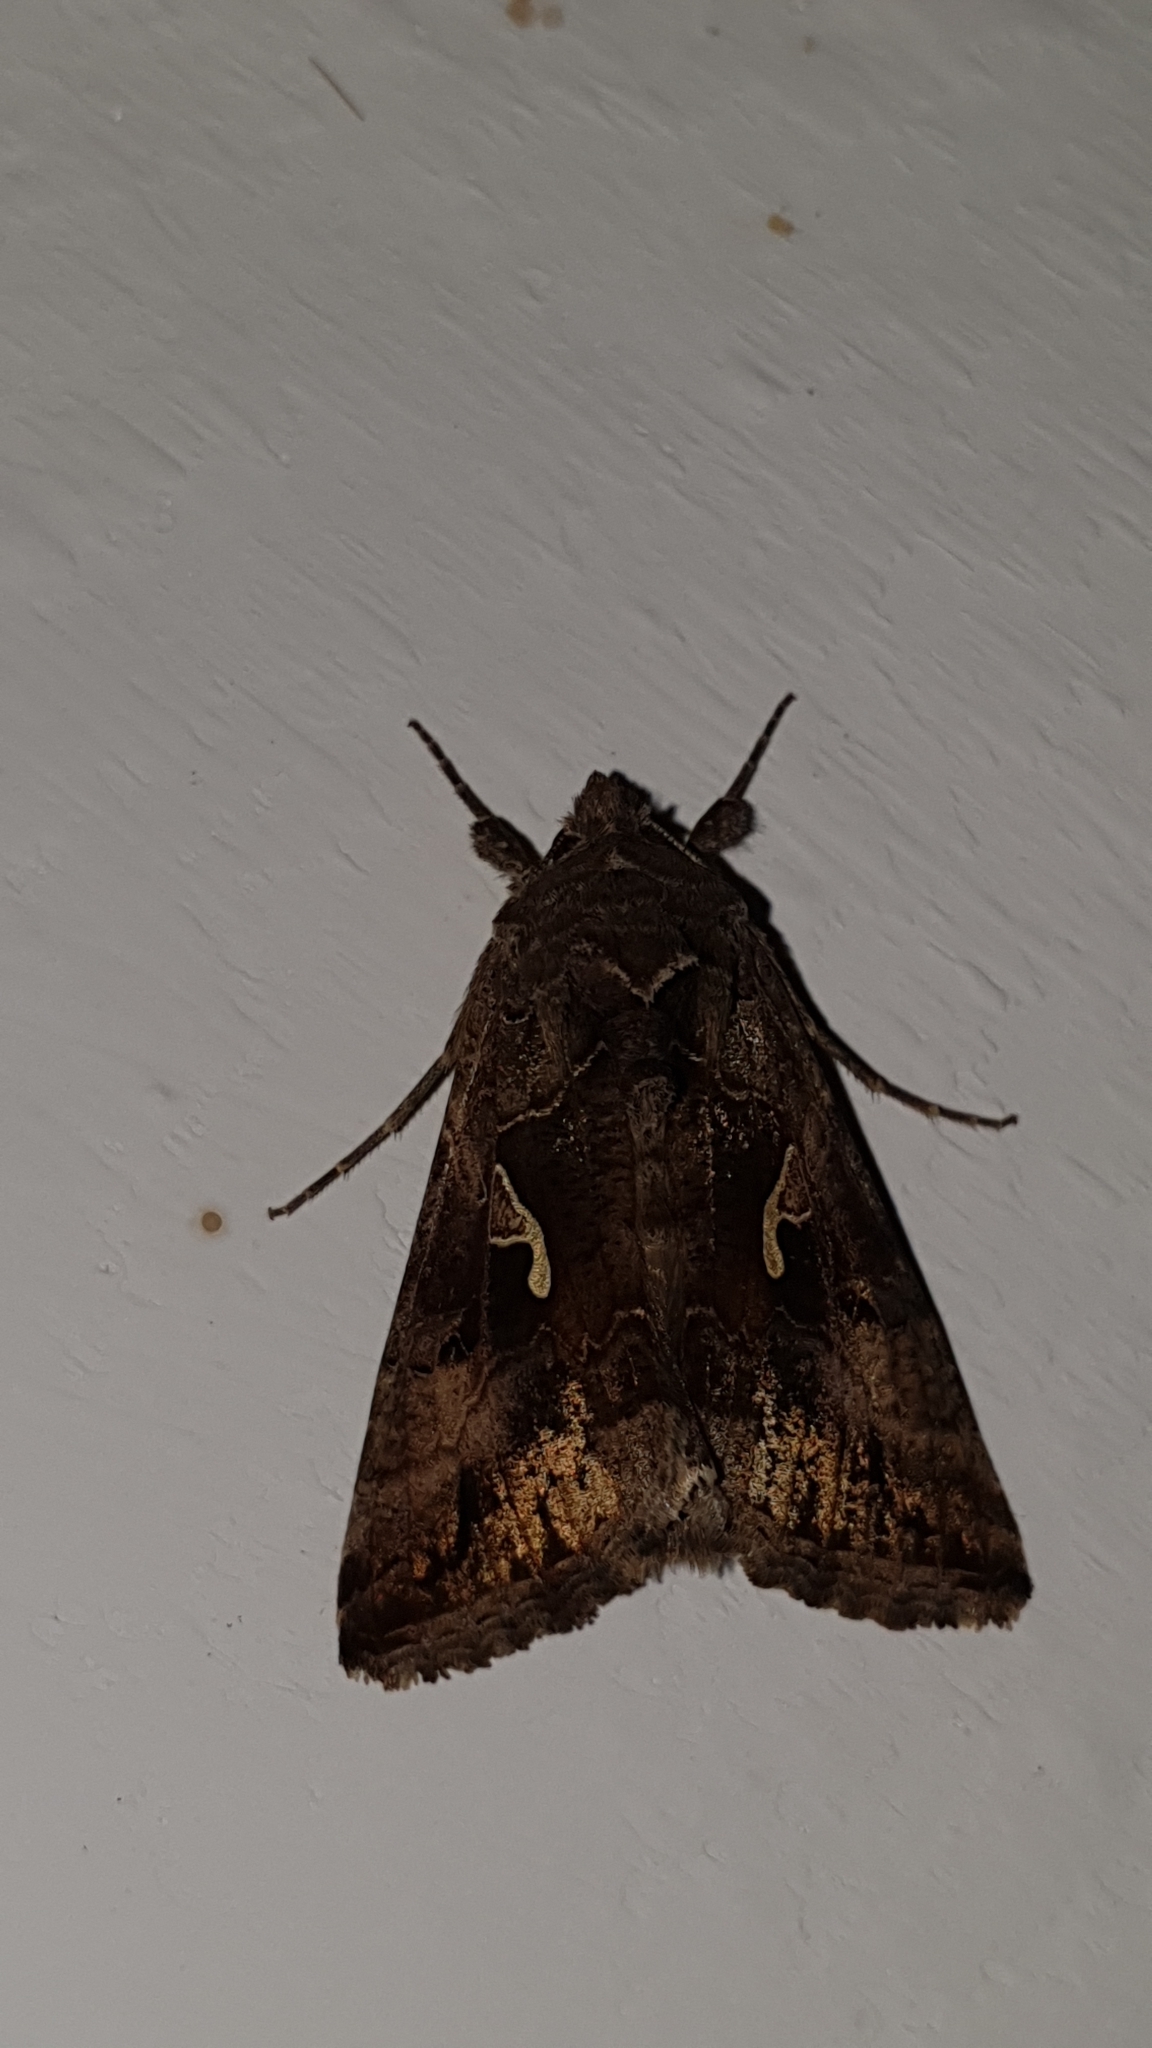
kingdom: Animalia
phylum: Arthropoda
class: Insecta
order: Lepidoptera
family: Noctuidae
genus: Autographa
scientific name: Autographa gamma
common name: Silver y
